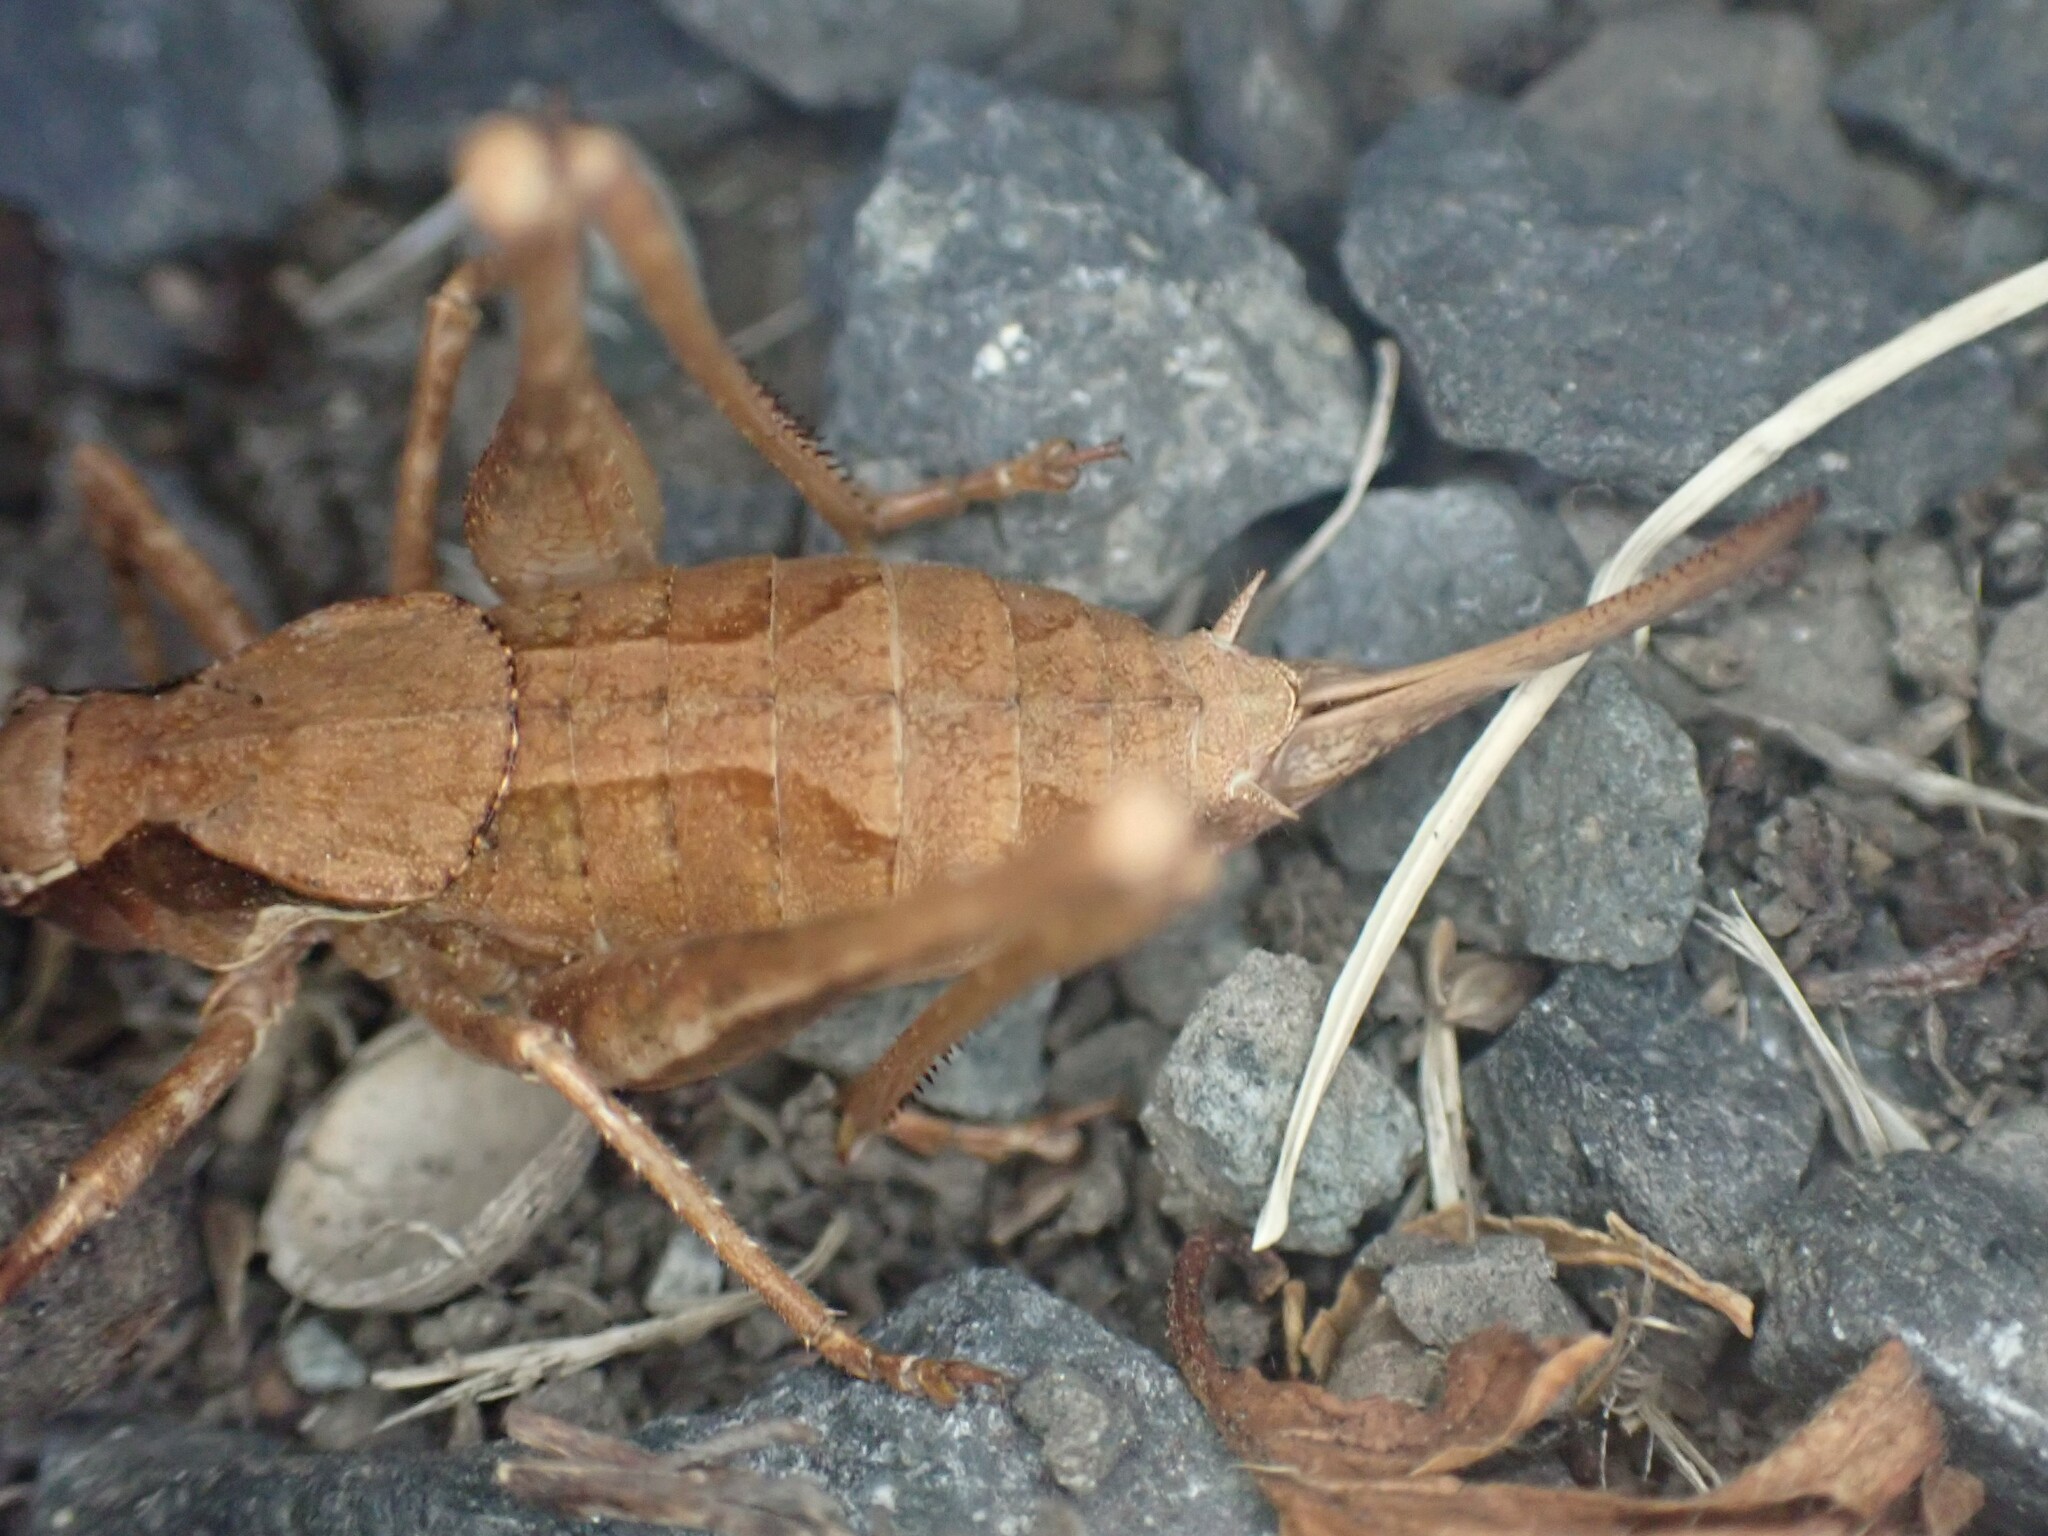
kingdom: Animalia
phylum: Arthropoda
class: Insecta
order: Orthoptera
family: Tettigoniidae
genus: Neduba
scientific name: Neduba steindachneri
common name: Steindachner's shieldback
